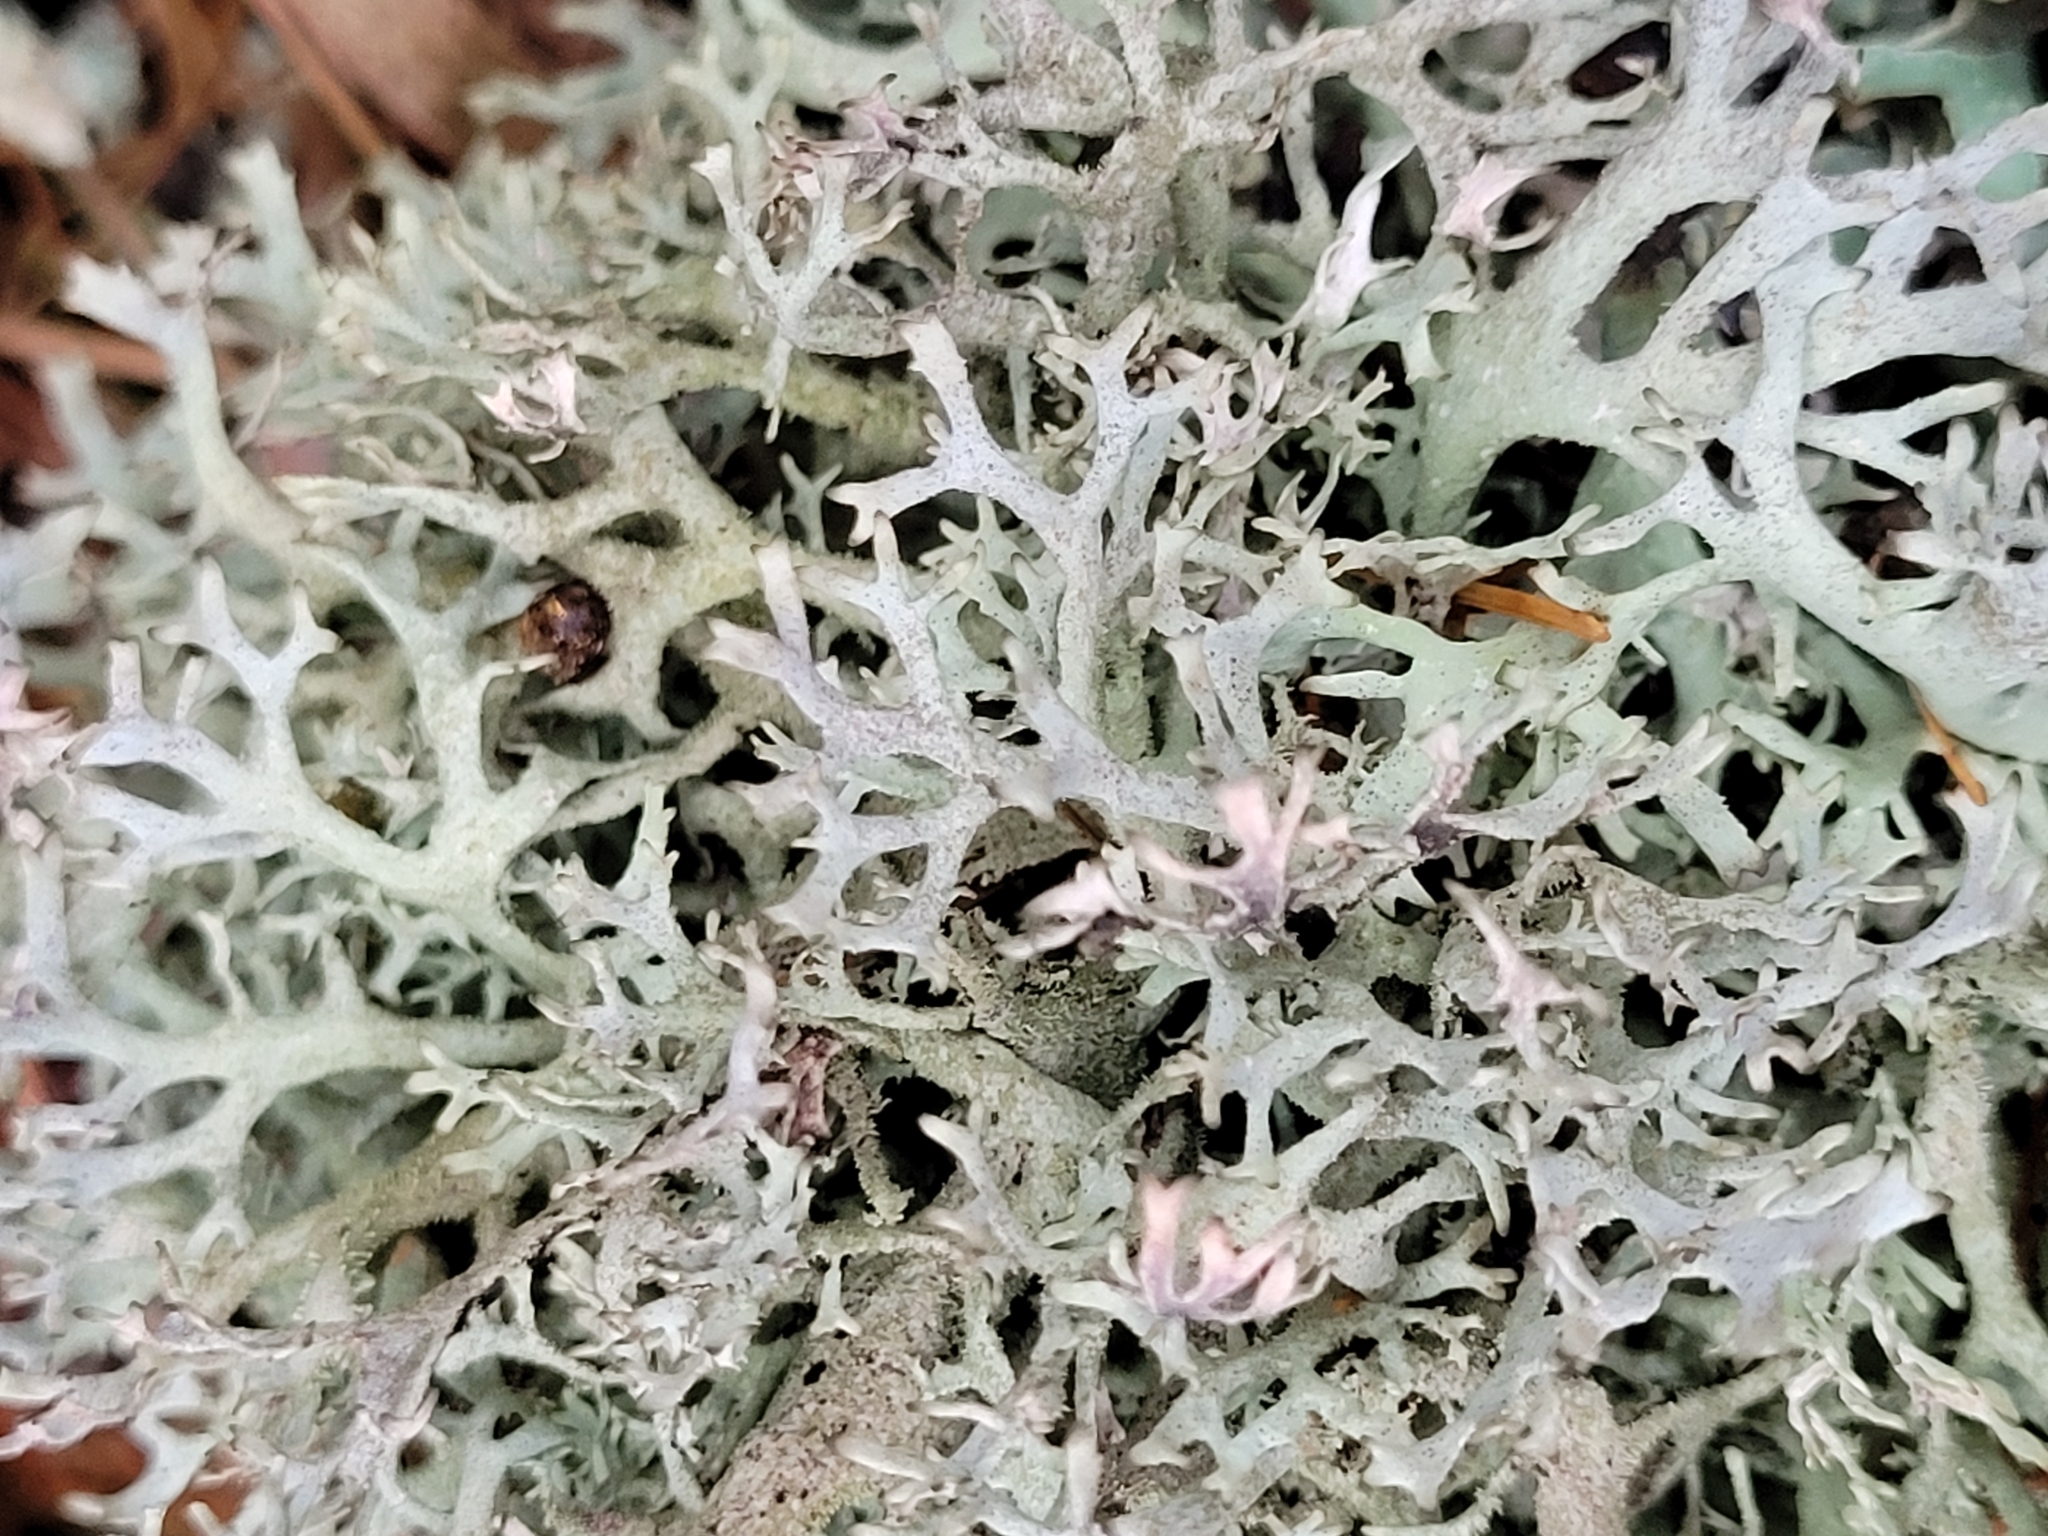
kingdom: Fungi
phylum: Ascomycota
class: Lecanoromycetes
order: Lecanorales
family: Parmeliaceae
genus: Pseudevernia
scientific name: Pseudevernia furfuracea
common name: Tree moss
